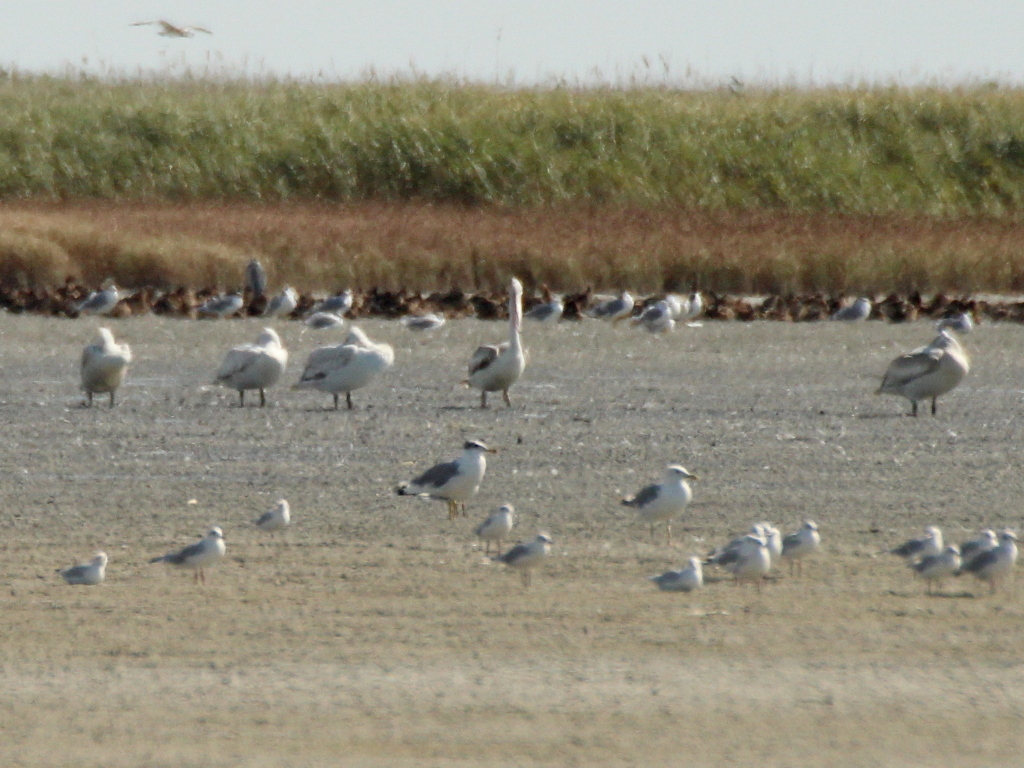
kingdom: Animalia
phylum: Chordata
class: Aves
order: Pelecaniformes
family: Pelecanidae
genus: Pelecanus
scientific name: Pelecanus crispus
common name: Dalmatian pelican
